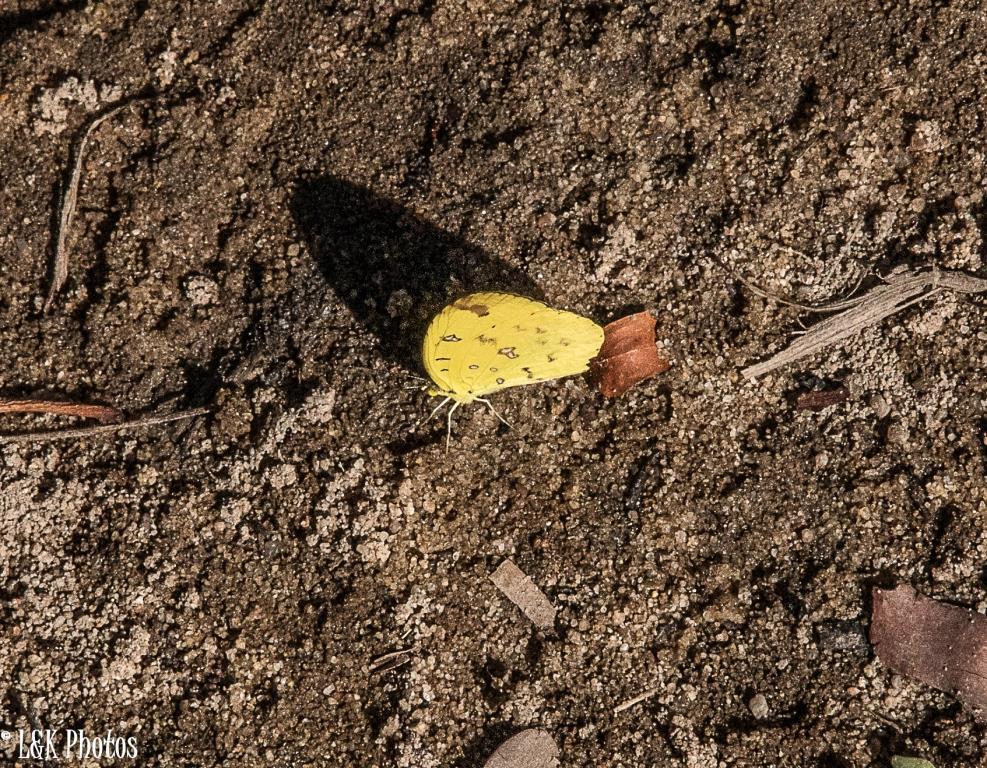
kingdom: Animalia
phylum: Arthropoda
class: Insecta
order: Lepidoptera
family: Pieridae
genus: Eurema
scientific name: Eurema floricola
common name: Malagasy grass yellow
